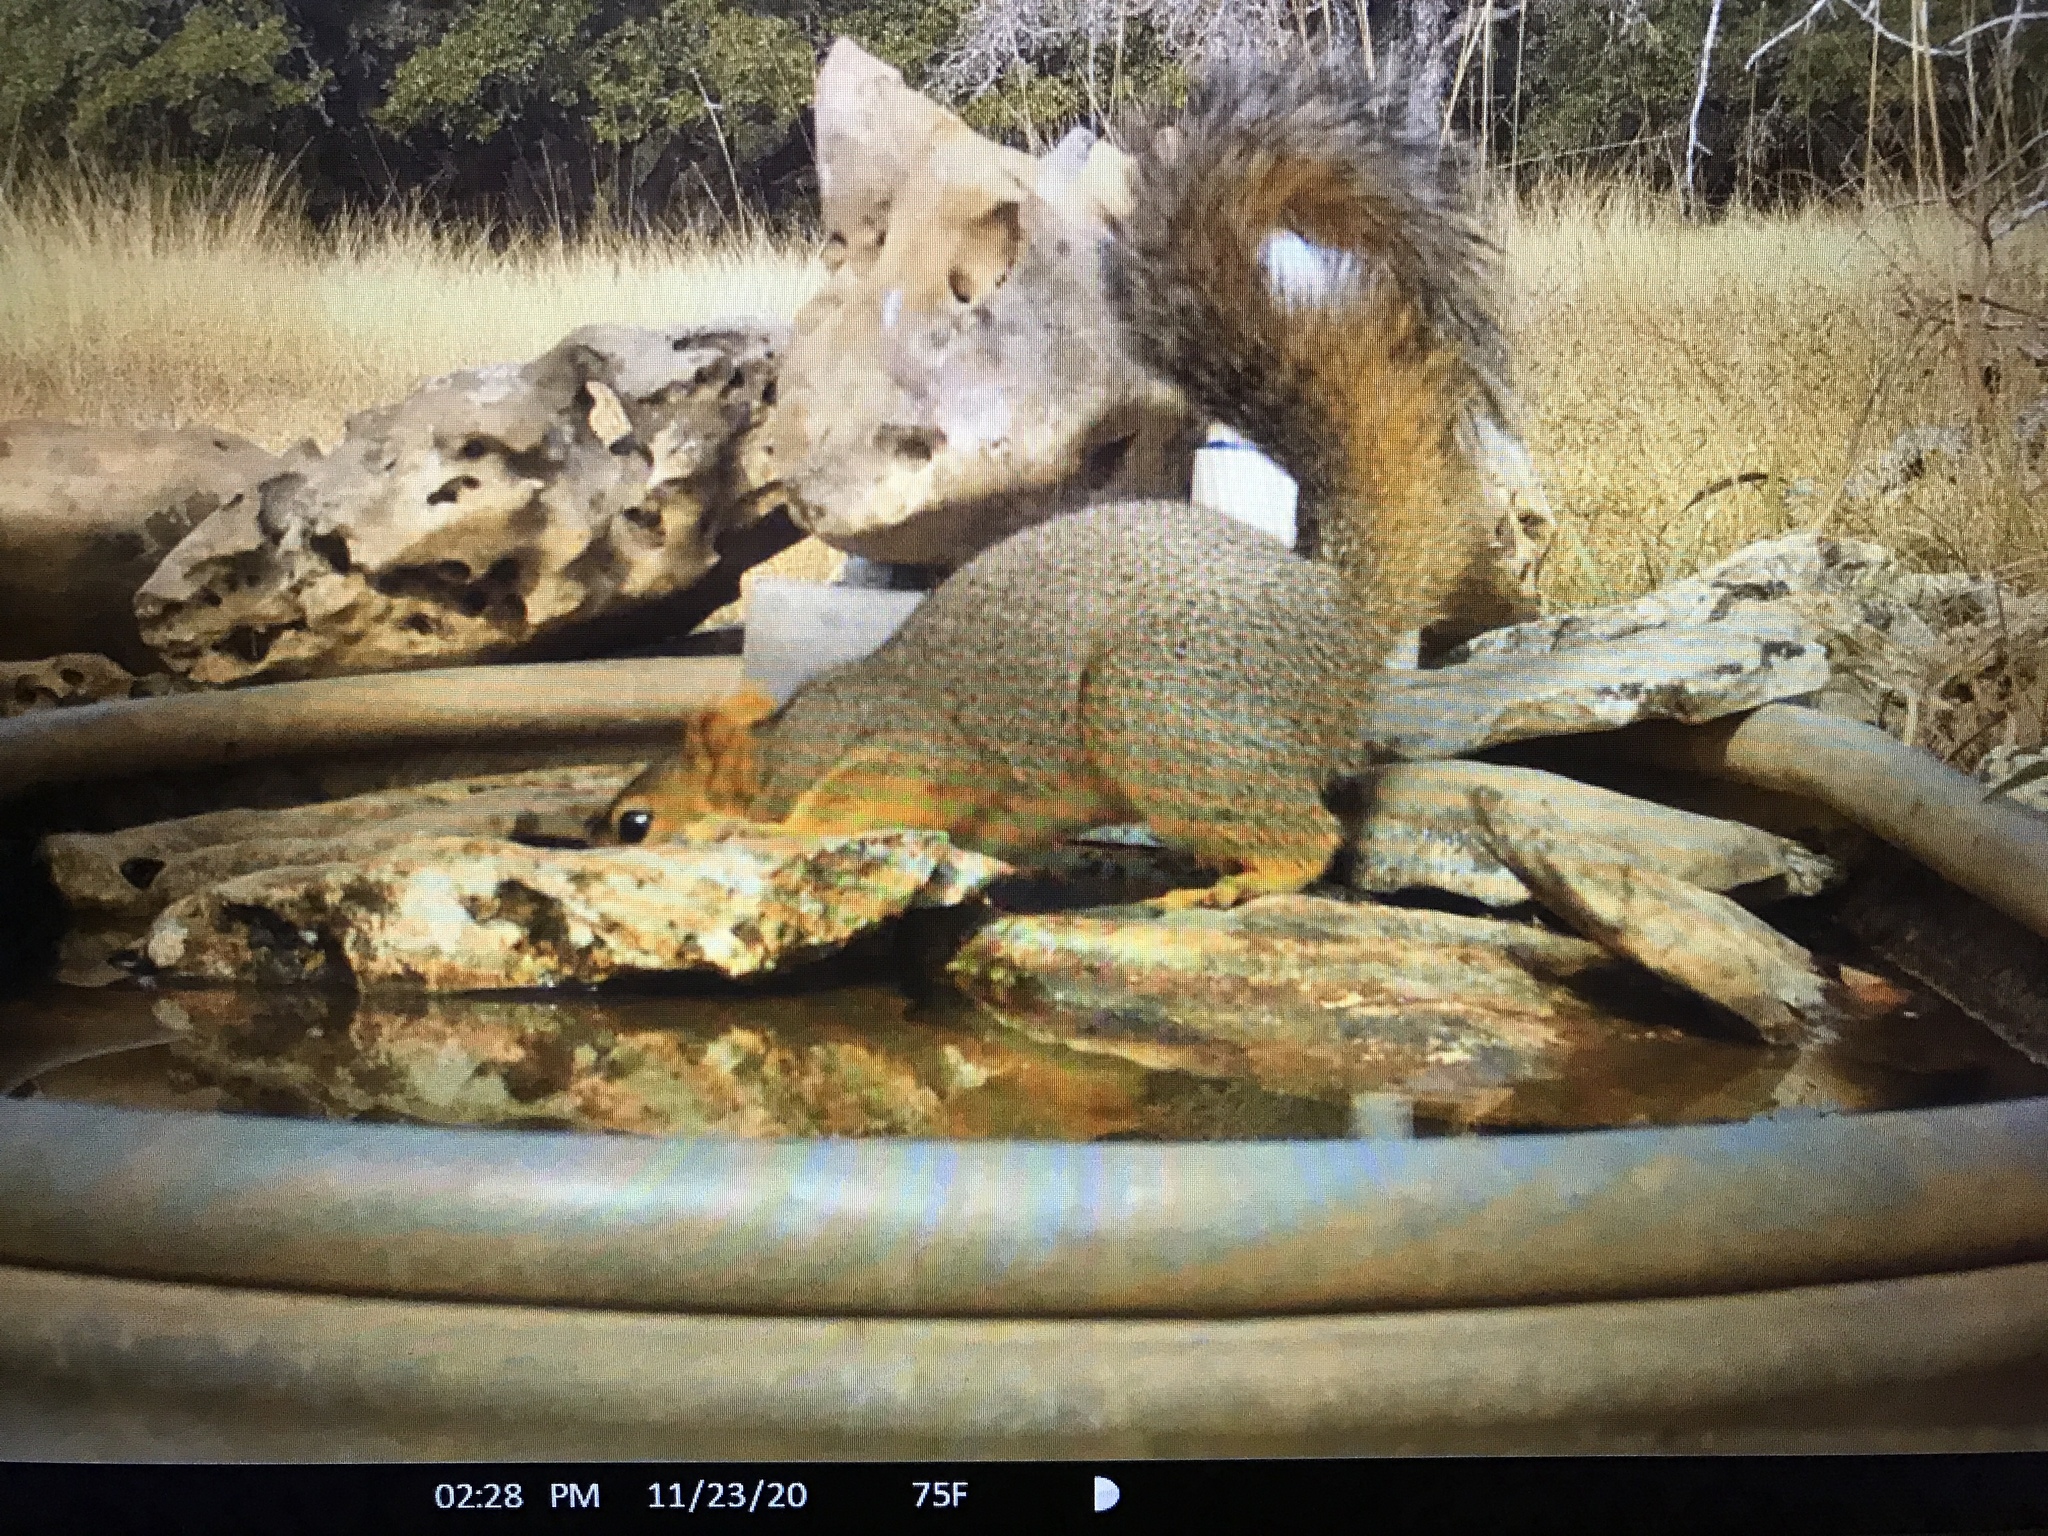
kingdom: Animalia
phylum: Chordata
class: Mammalia
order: Rodentia
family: Sciuridae
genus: Sciurus
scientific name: Sciurus niger
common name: Fox squirrel
